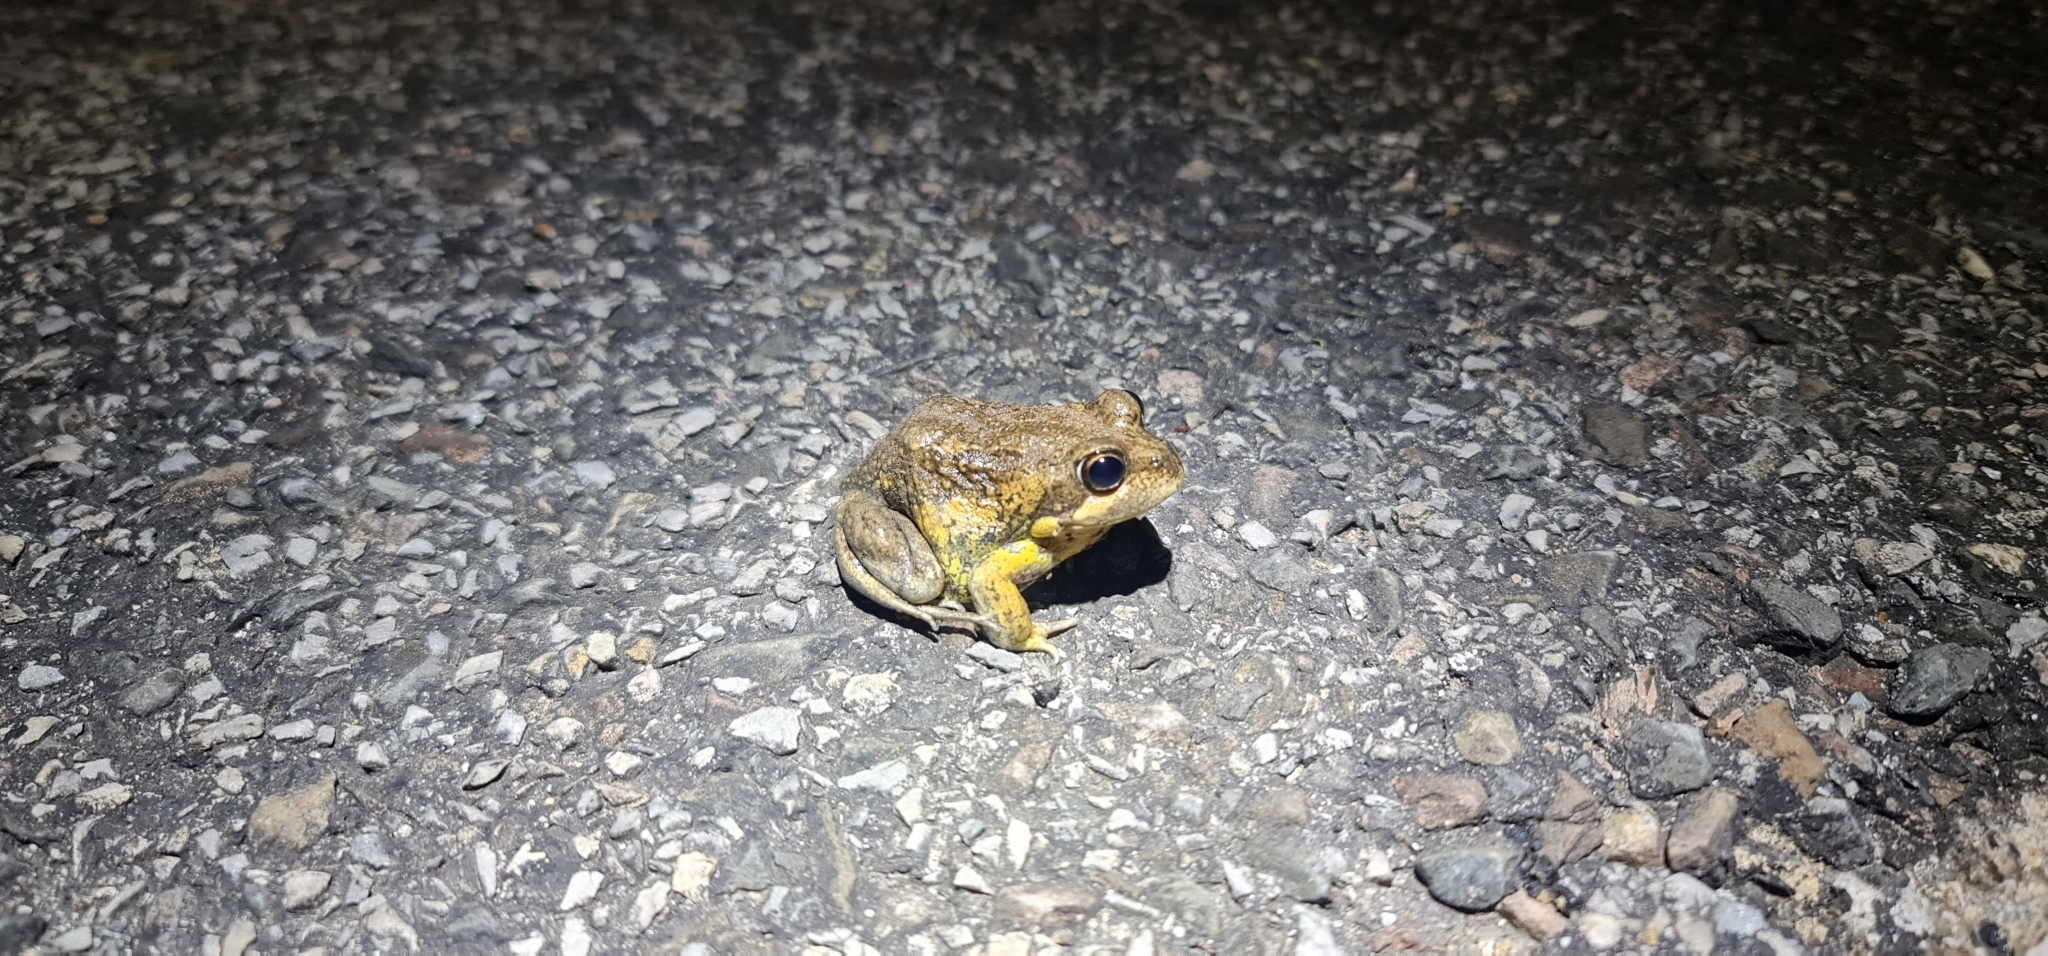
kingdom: Animalia
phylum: Chordata
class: Amphibia
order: Anura
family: Limnodynastidae
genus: Limnodynastes
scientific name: Limnodynastes dumerilii
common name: Banjo frog
